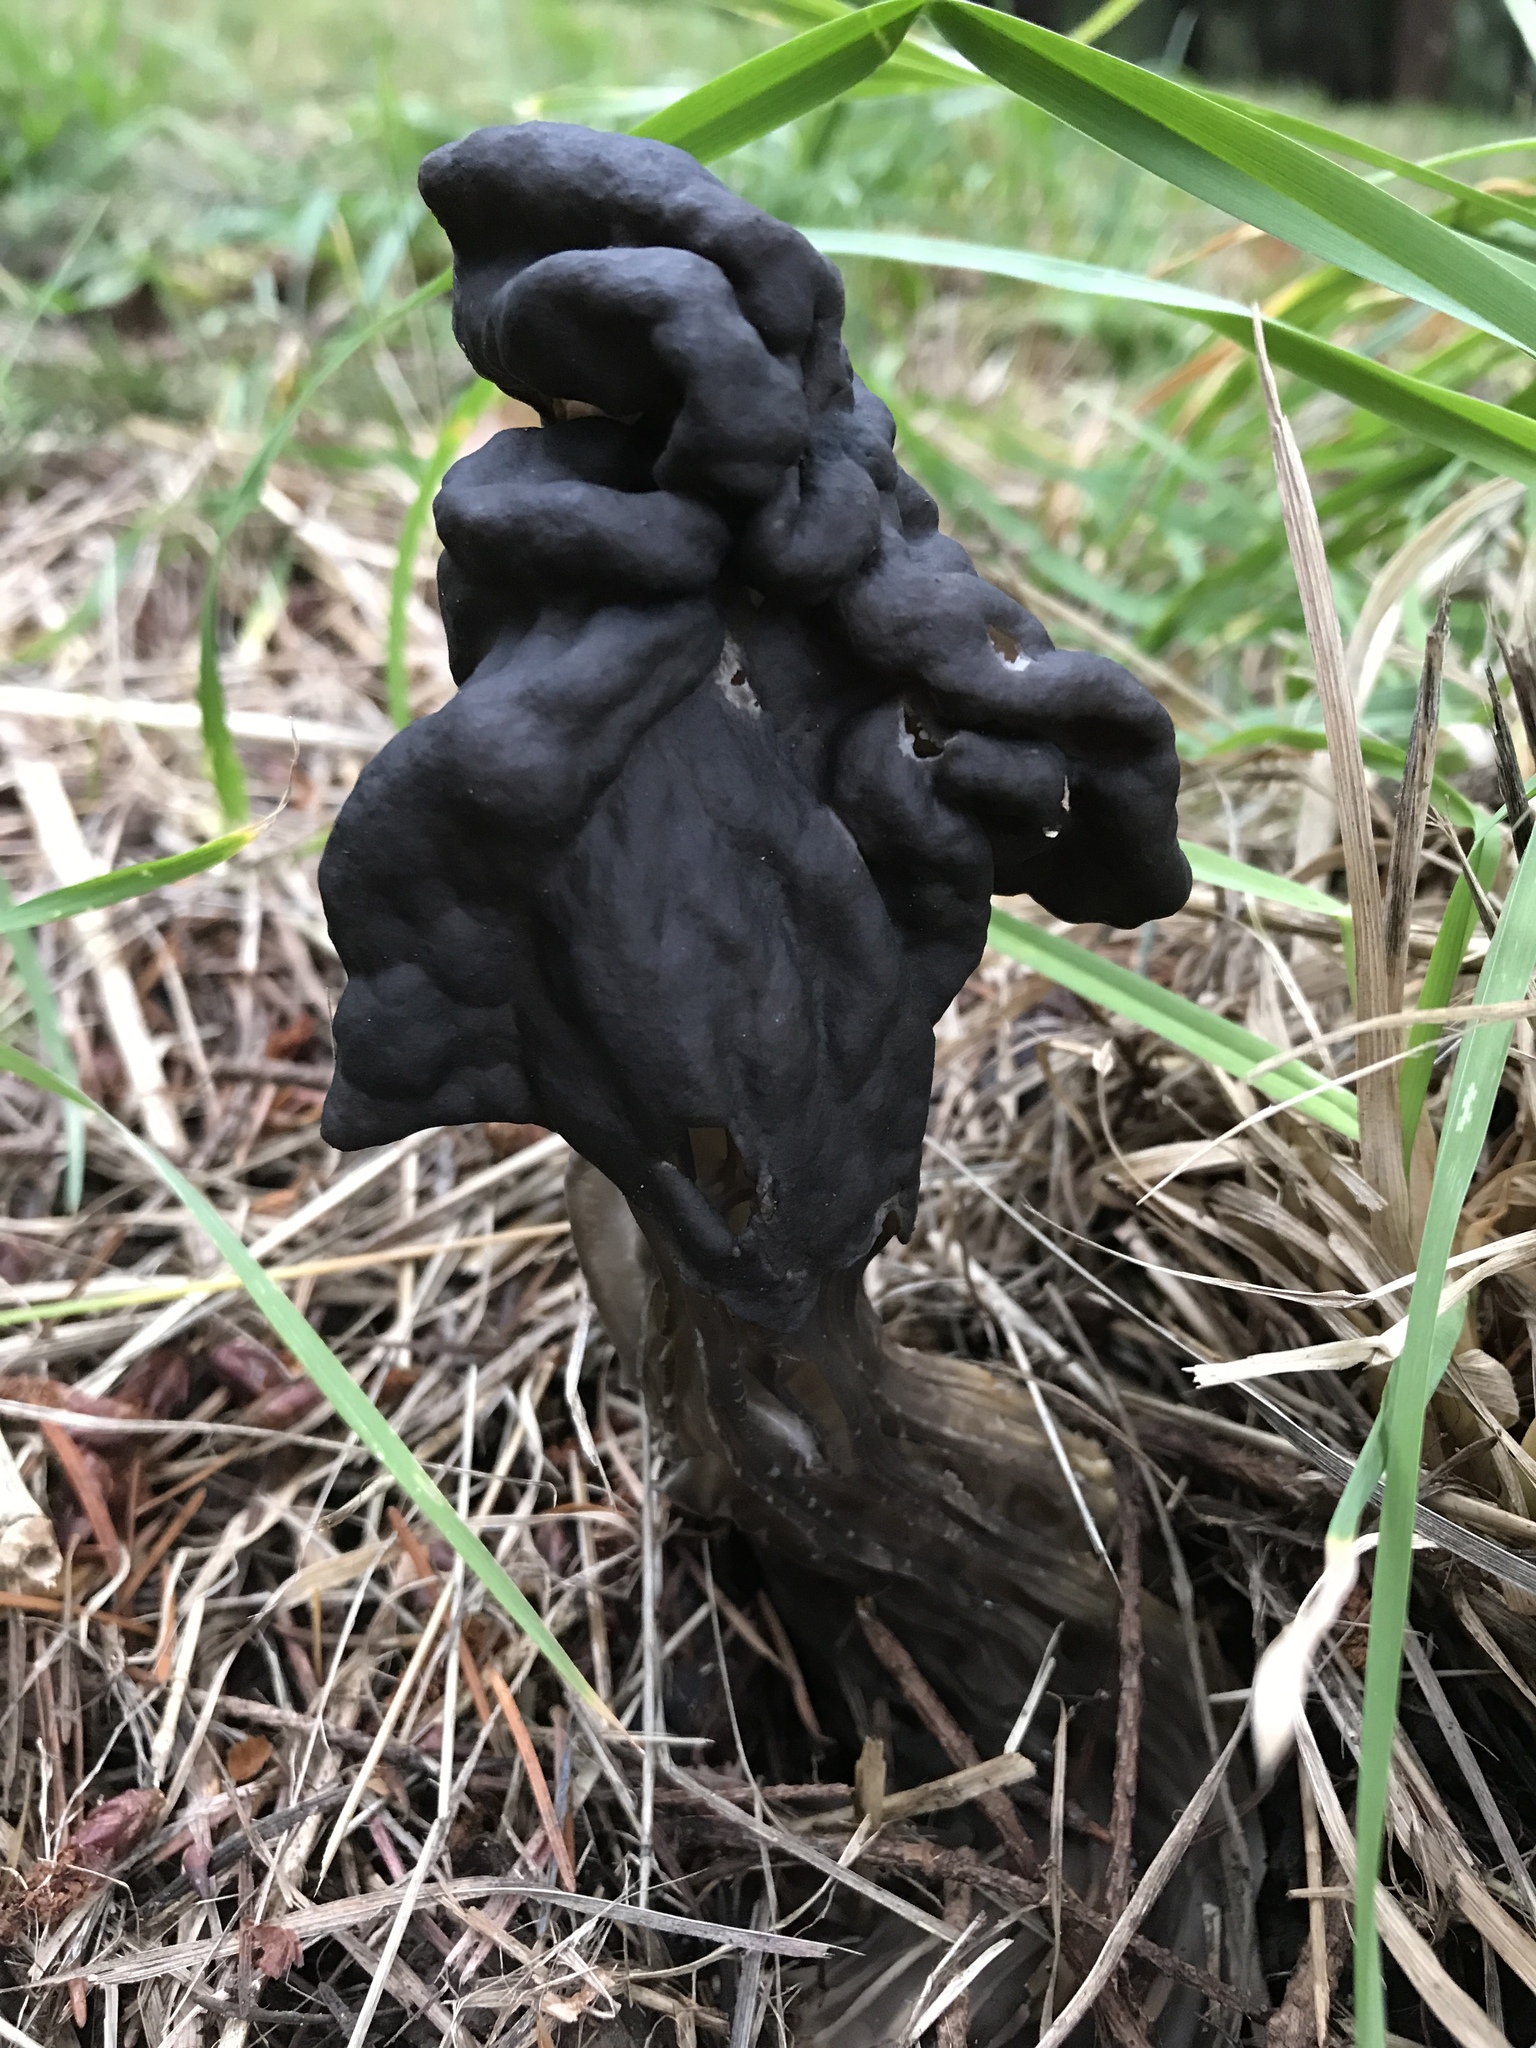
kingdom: Fungi
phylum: Ascomycota
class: Pezizomycetes
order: Pezizales
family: Helvellaceae
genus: Helvella
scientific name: Helvella vespertina
